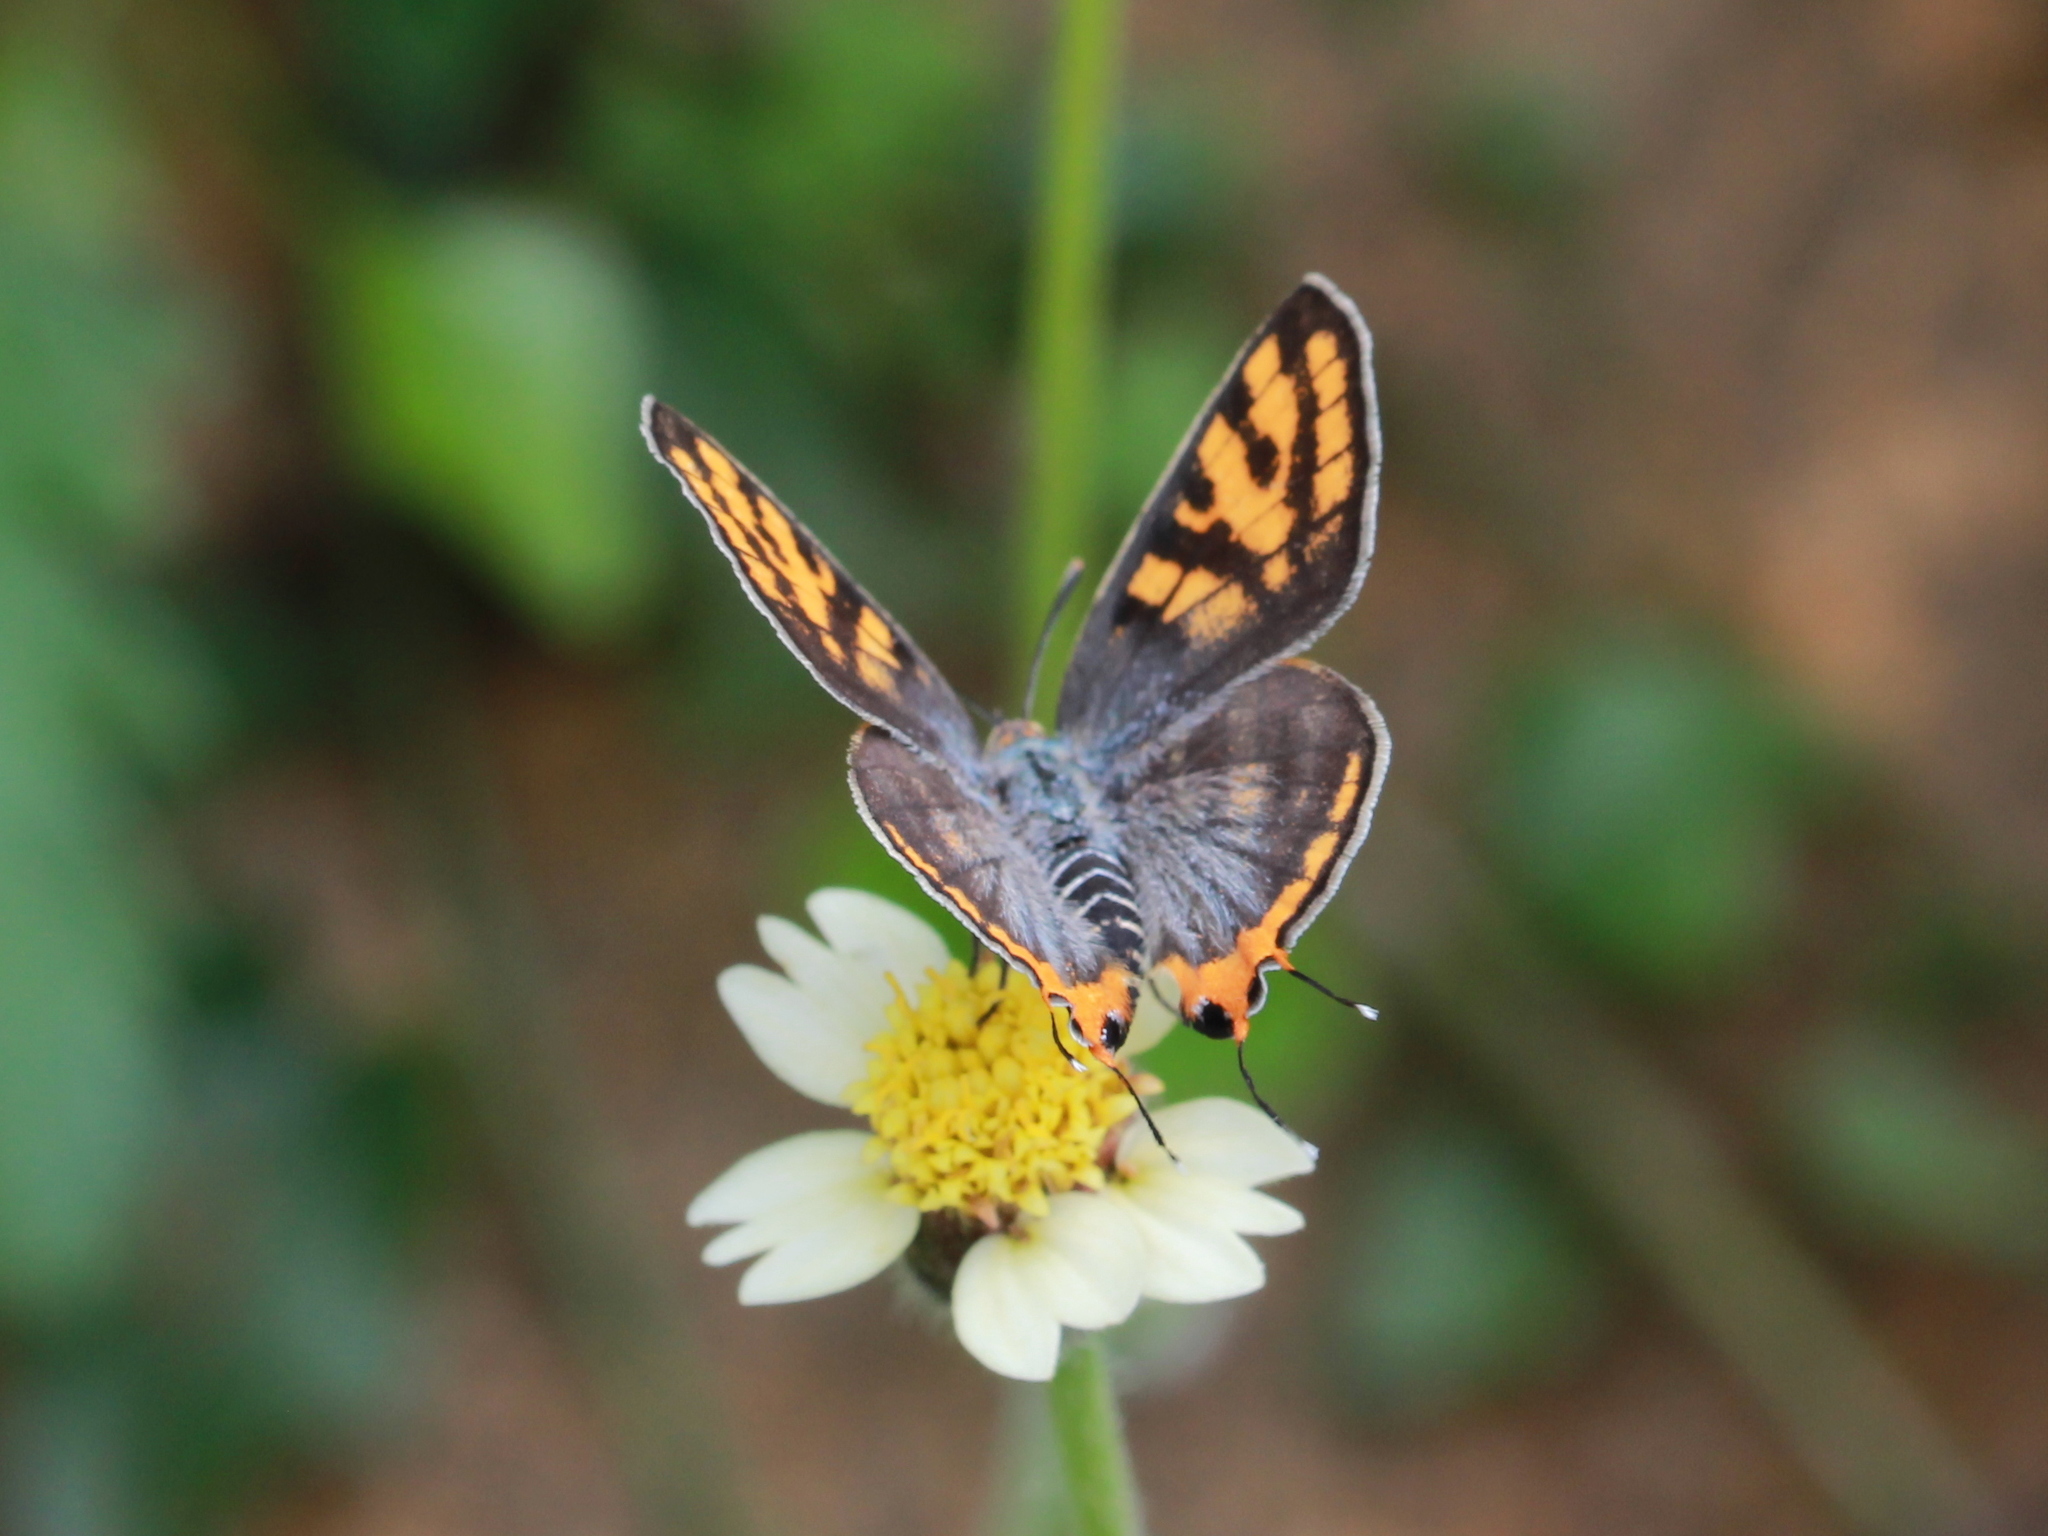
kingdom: Animalia
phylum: Arthropoda
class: Insecta
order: Lepidoptera
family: Lycaenidae
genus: Cigaritis
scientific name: Cigaritis vulcanus
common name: Common silverline
